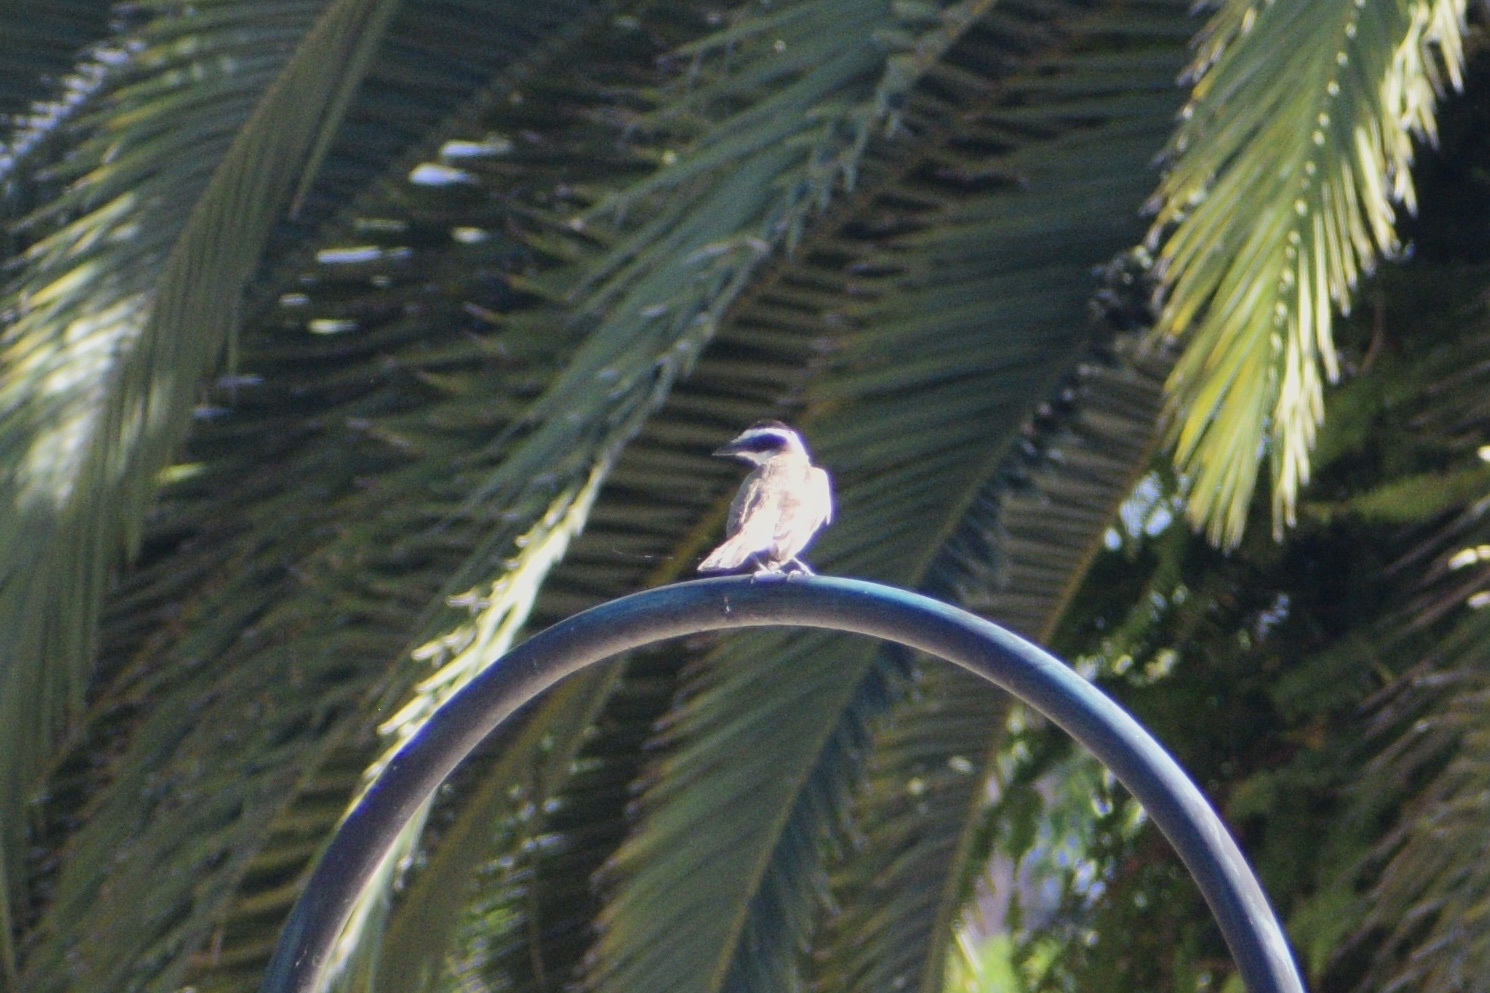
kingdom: Animalia
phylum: Chordata
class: Aves
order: Passeriformes
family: Tyrannidae
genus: Pitangus
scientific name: Pitangus sulphuratus
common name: Great kiskadee
